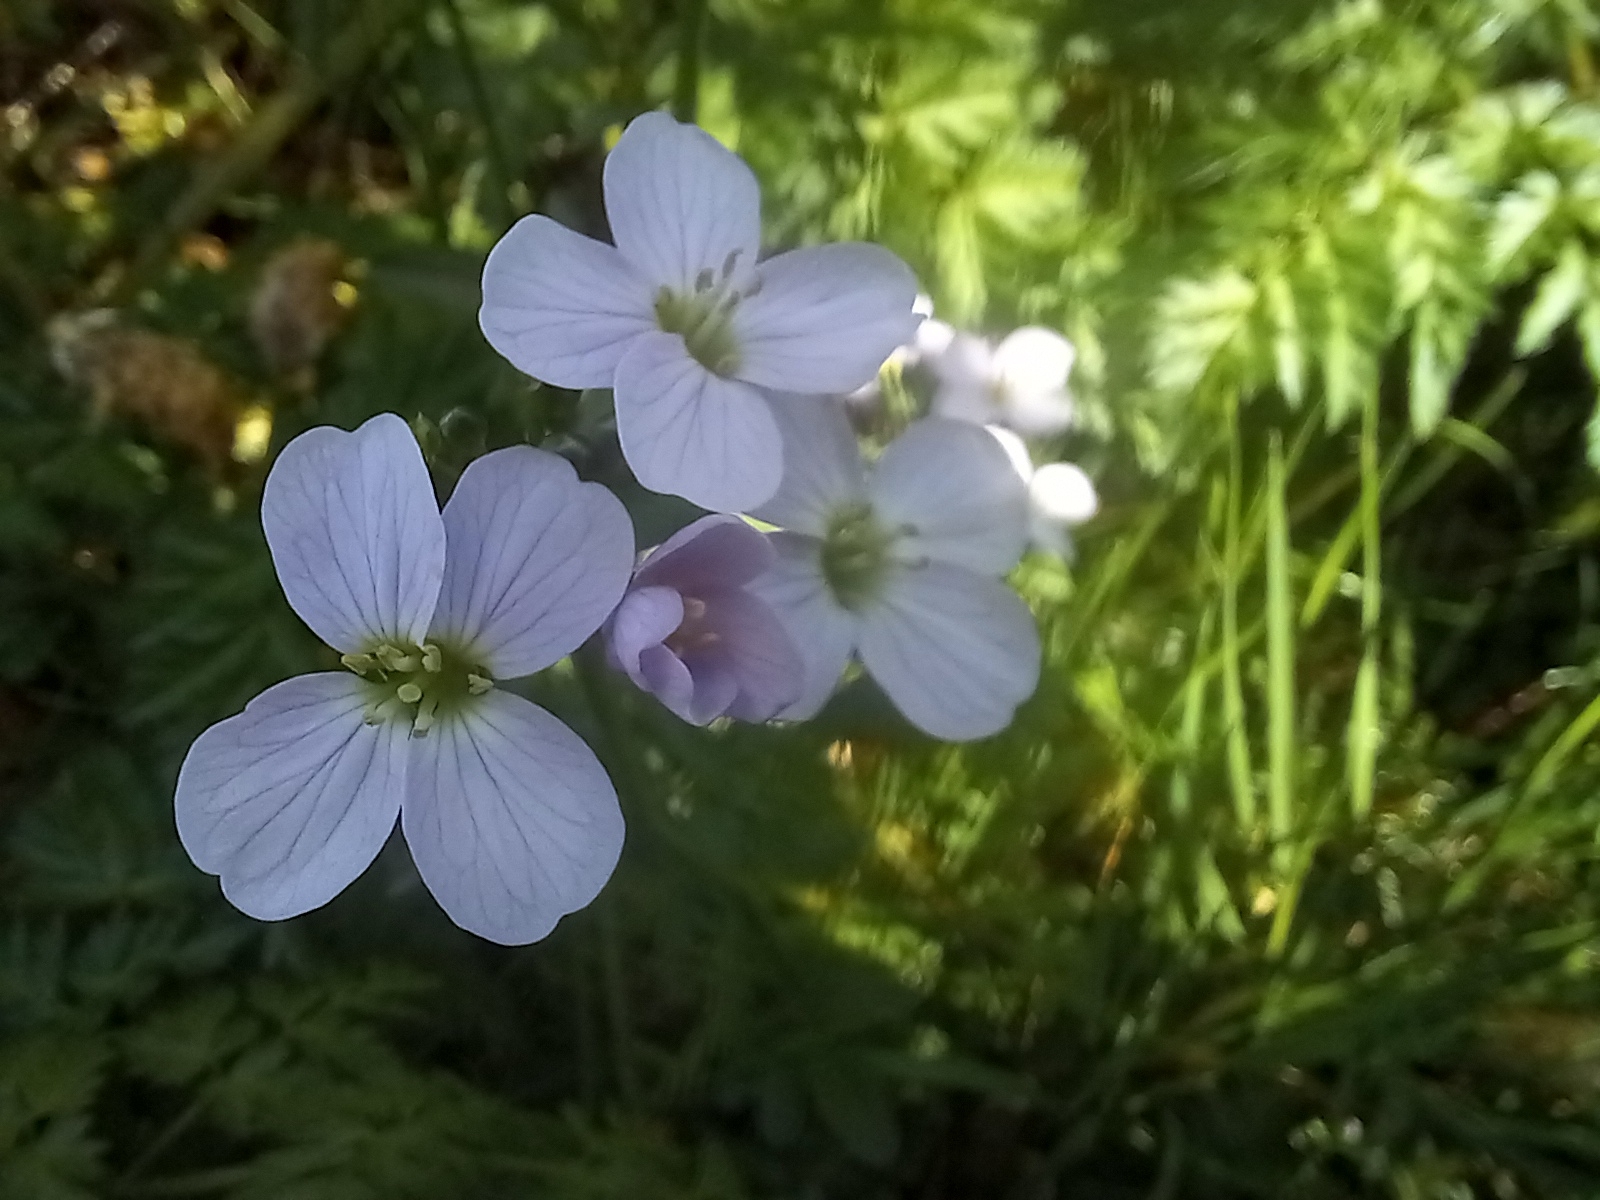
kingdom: Plantae
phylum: Tracheophyta
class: Magnoliopsida
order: Brassicales
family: Brassicaceae
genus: Cardamine
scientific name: Cardamine pratensis
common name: Cuckoo flower
